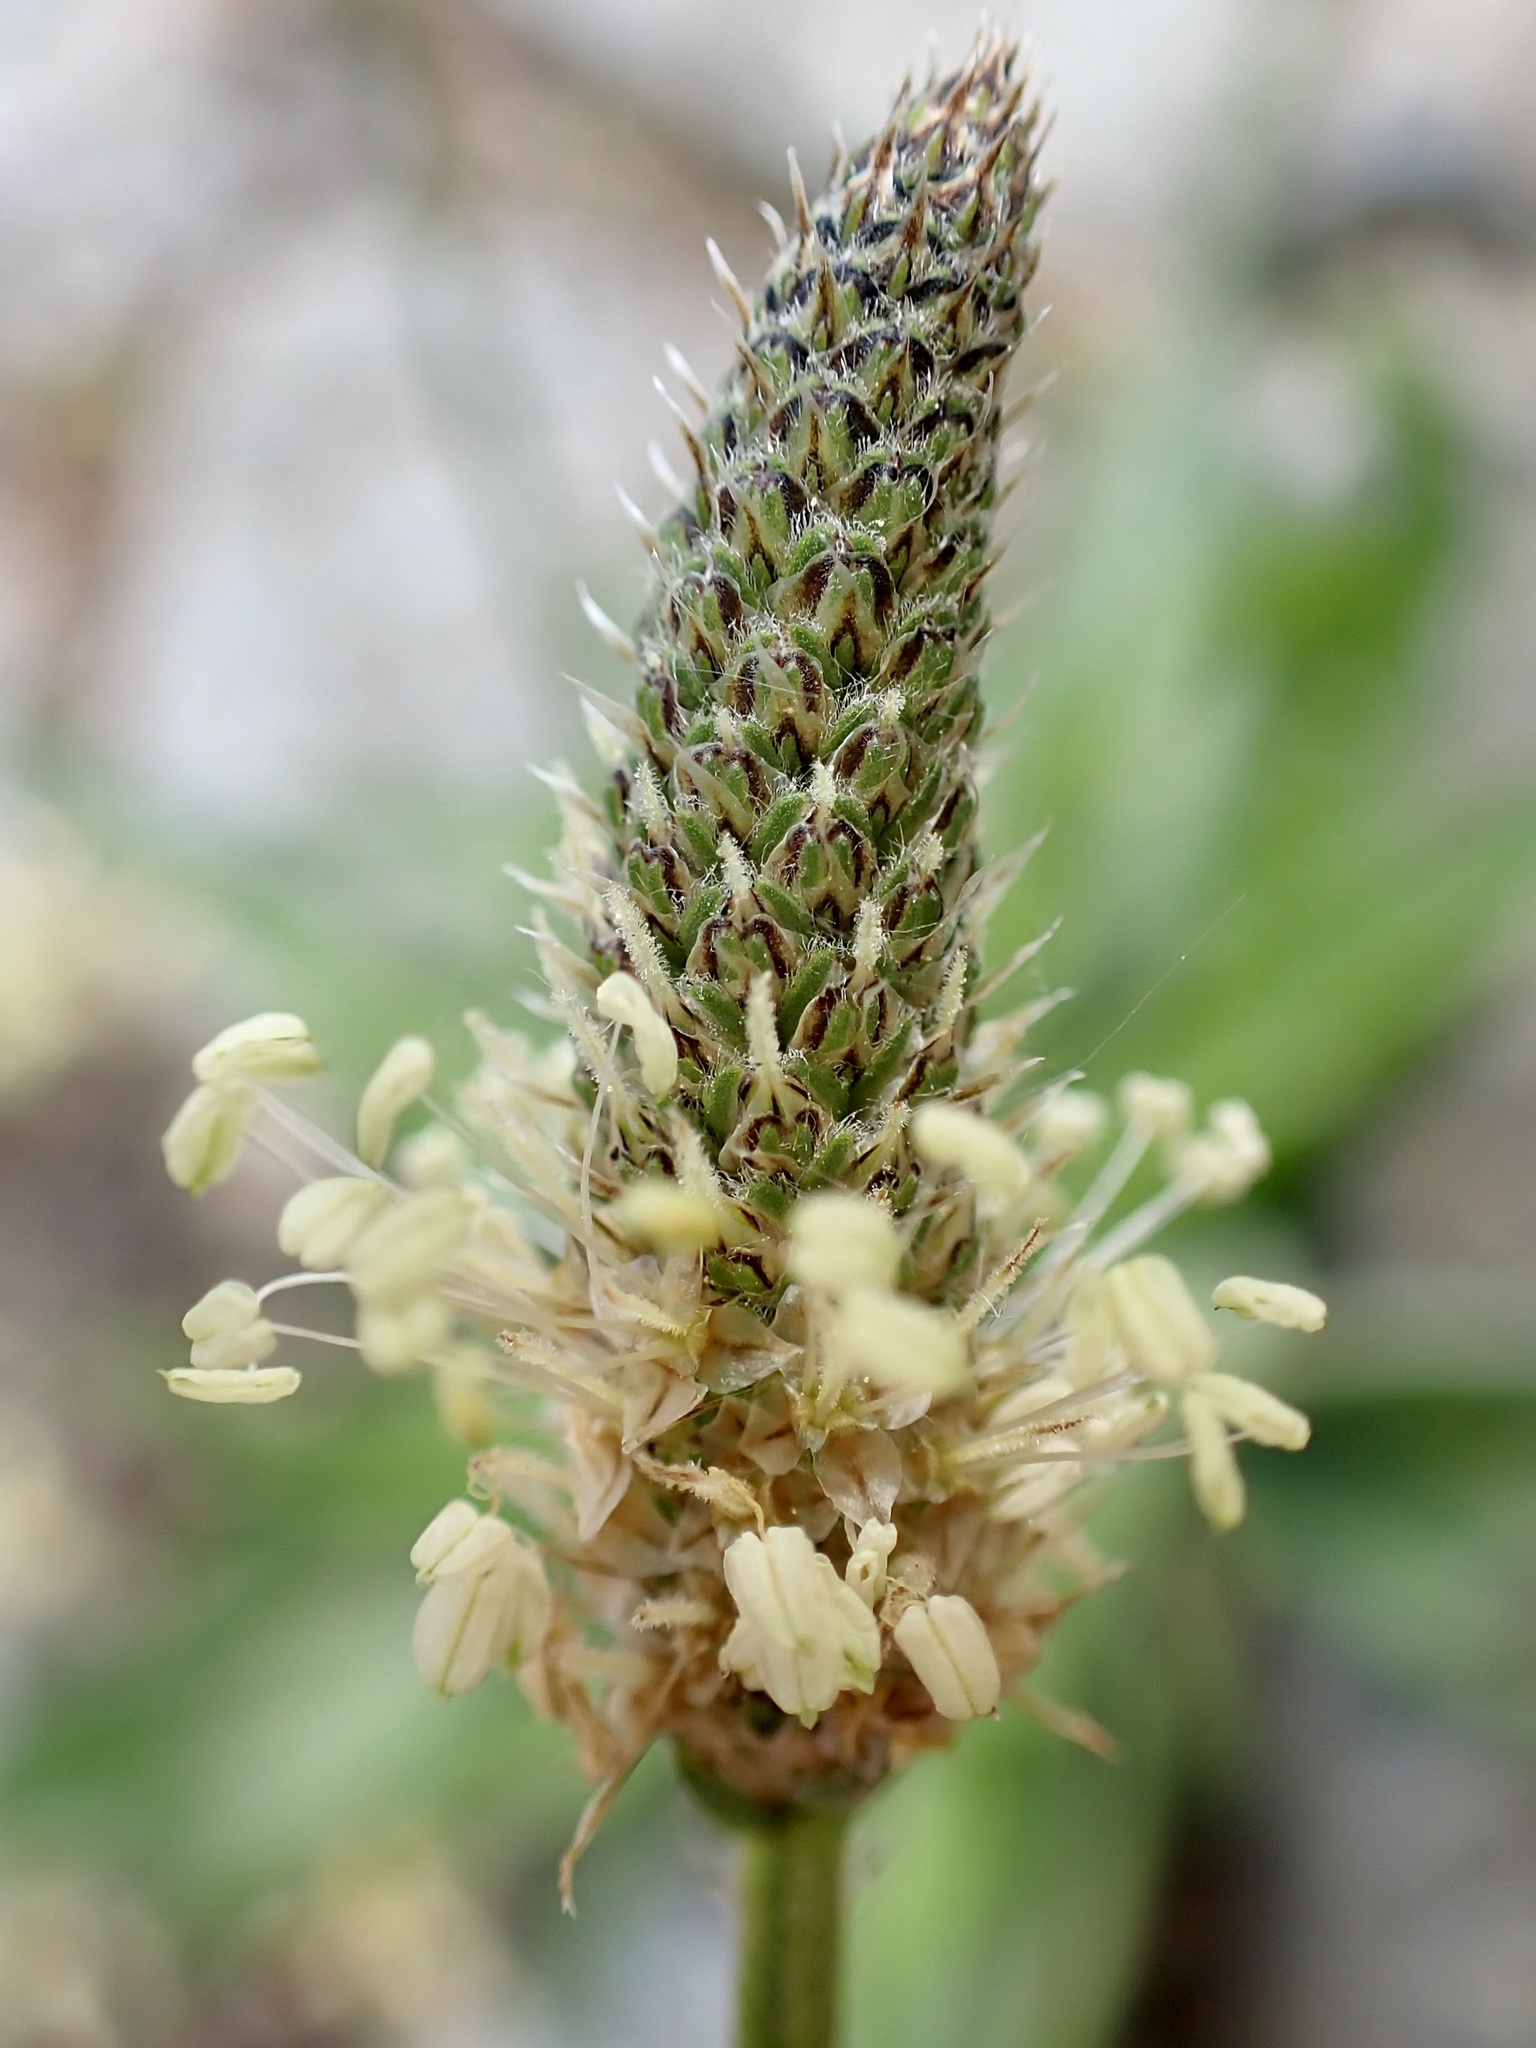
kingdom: Plantae
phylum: Tracheophyta
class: Magnoliopsida
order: Lamiales
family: Plantaginaceae
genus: Plantago
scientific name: Plantago lanceolata
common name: Ribwort plantain
